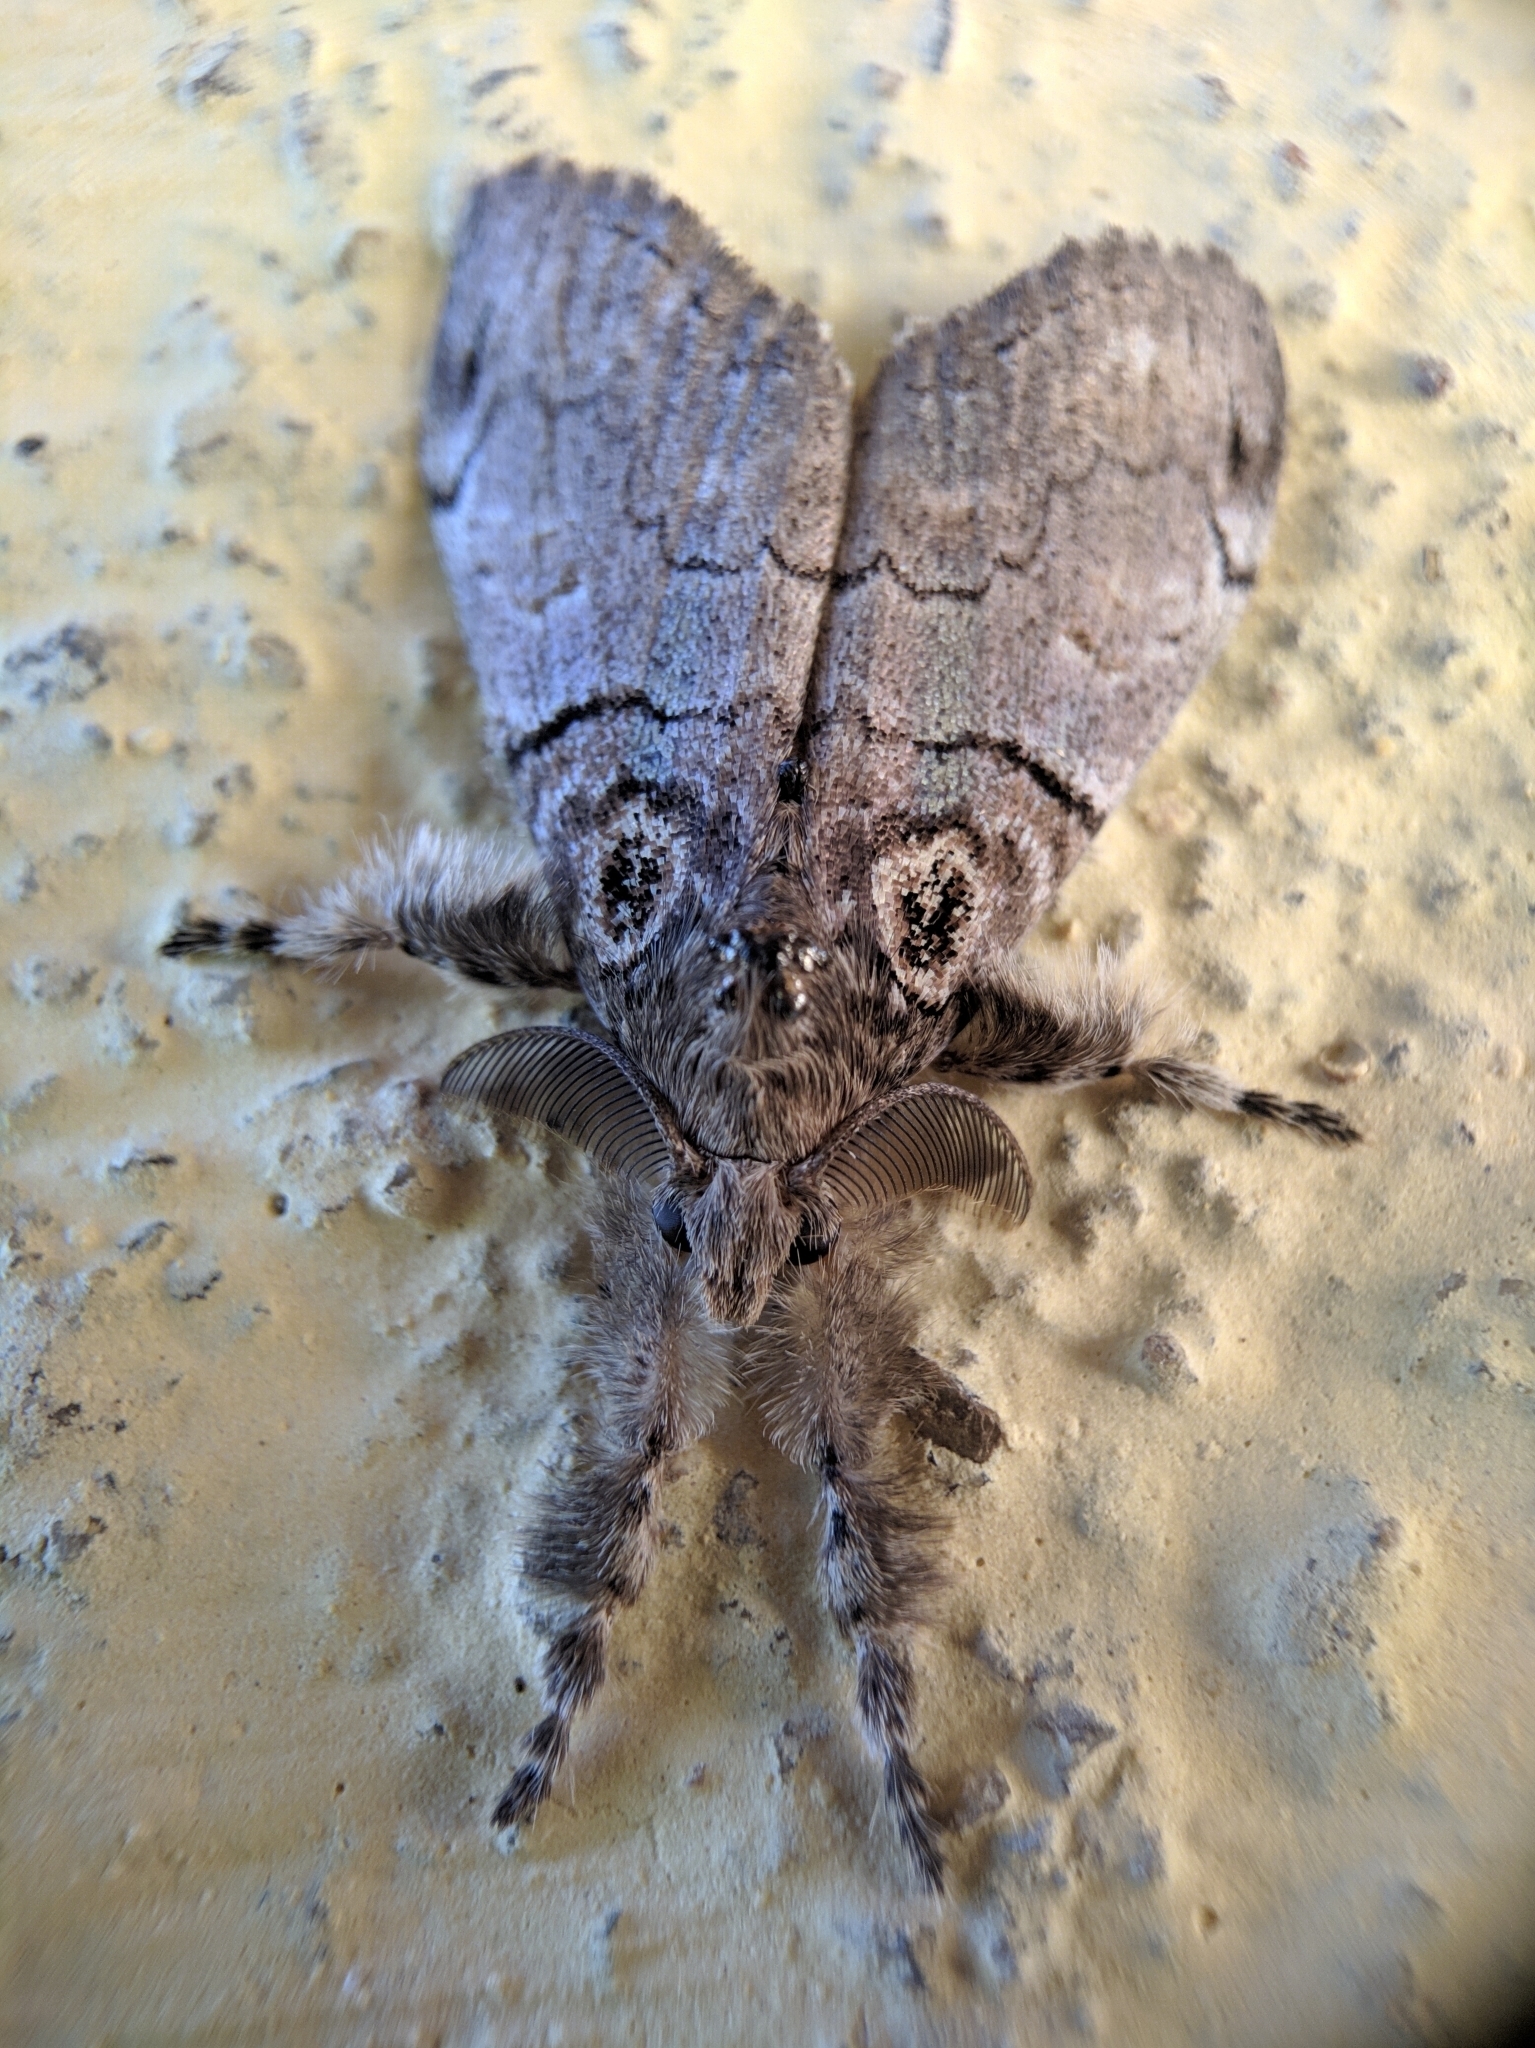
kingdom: Animalia
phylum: Arthropoda
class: Insecta
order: Lepidoptera
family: Erebidae
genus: Olene
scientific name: Olene mendosa
